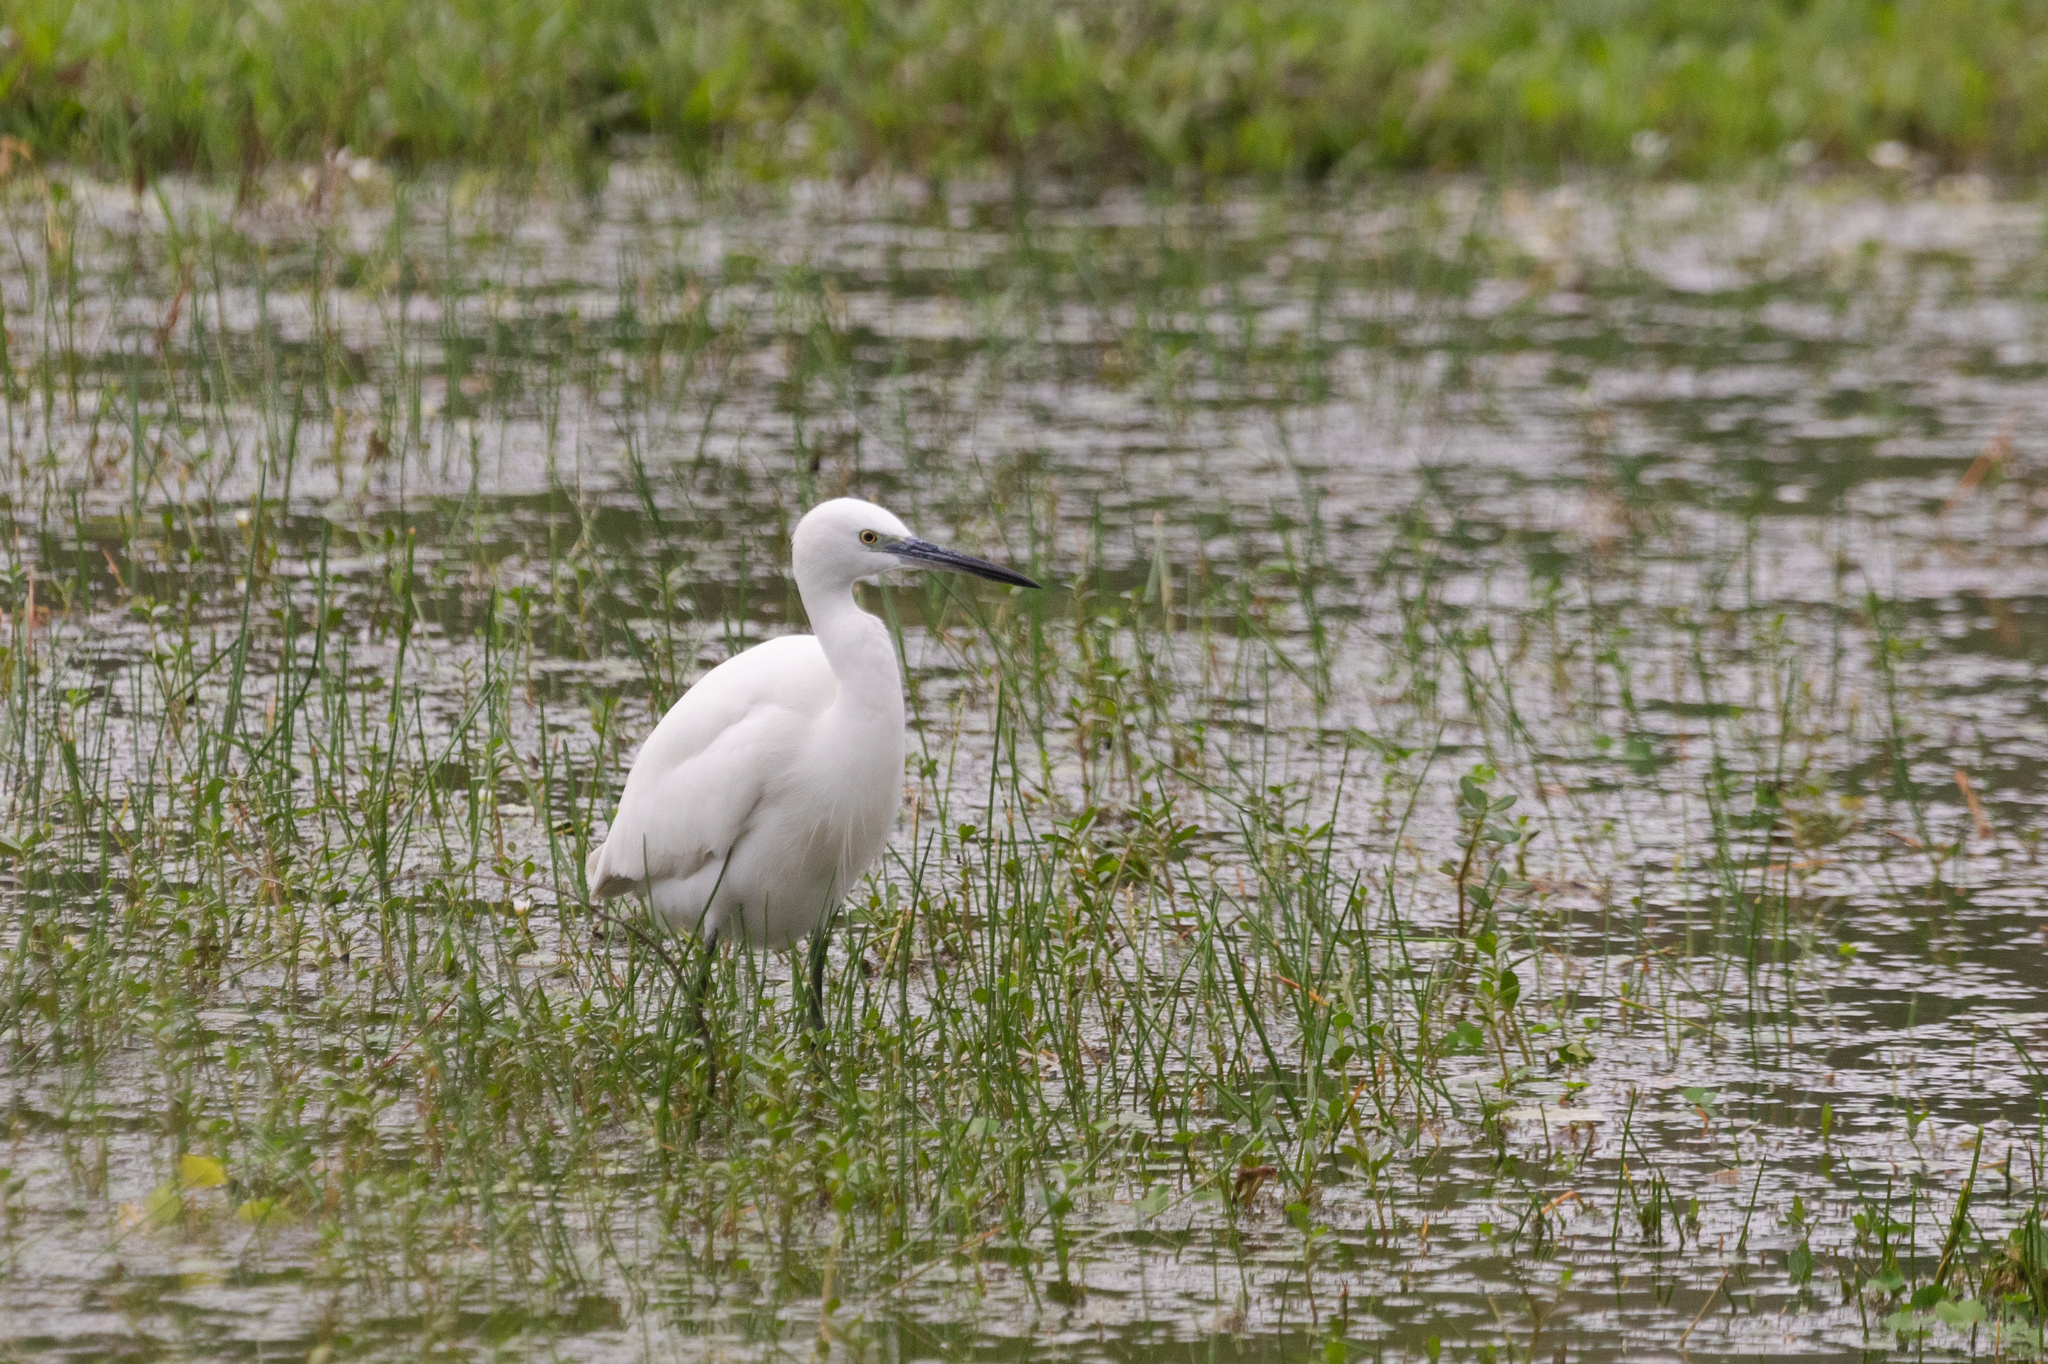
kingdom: Animalia
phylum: Chordata
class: Aves
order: Pelecaniformes
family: Ardeidae
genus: Egretta
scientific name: Egretta garzetta
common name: Little egret
